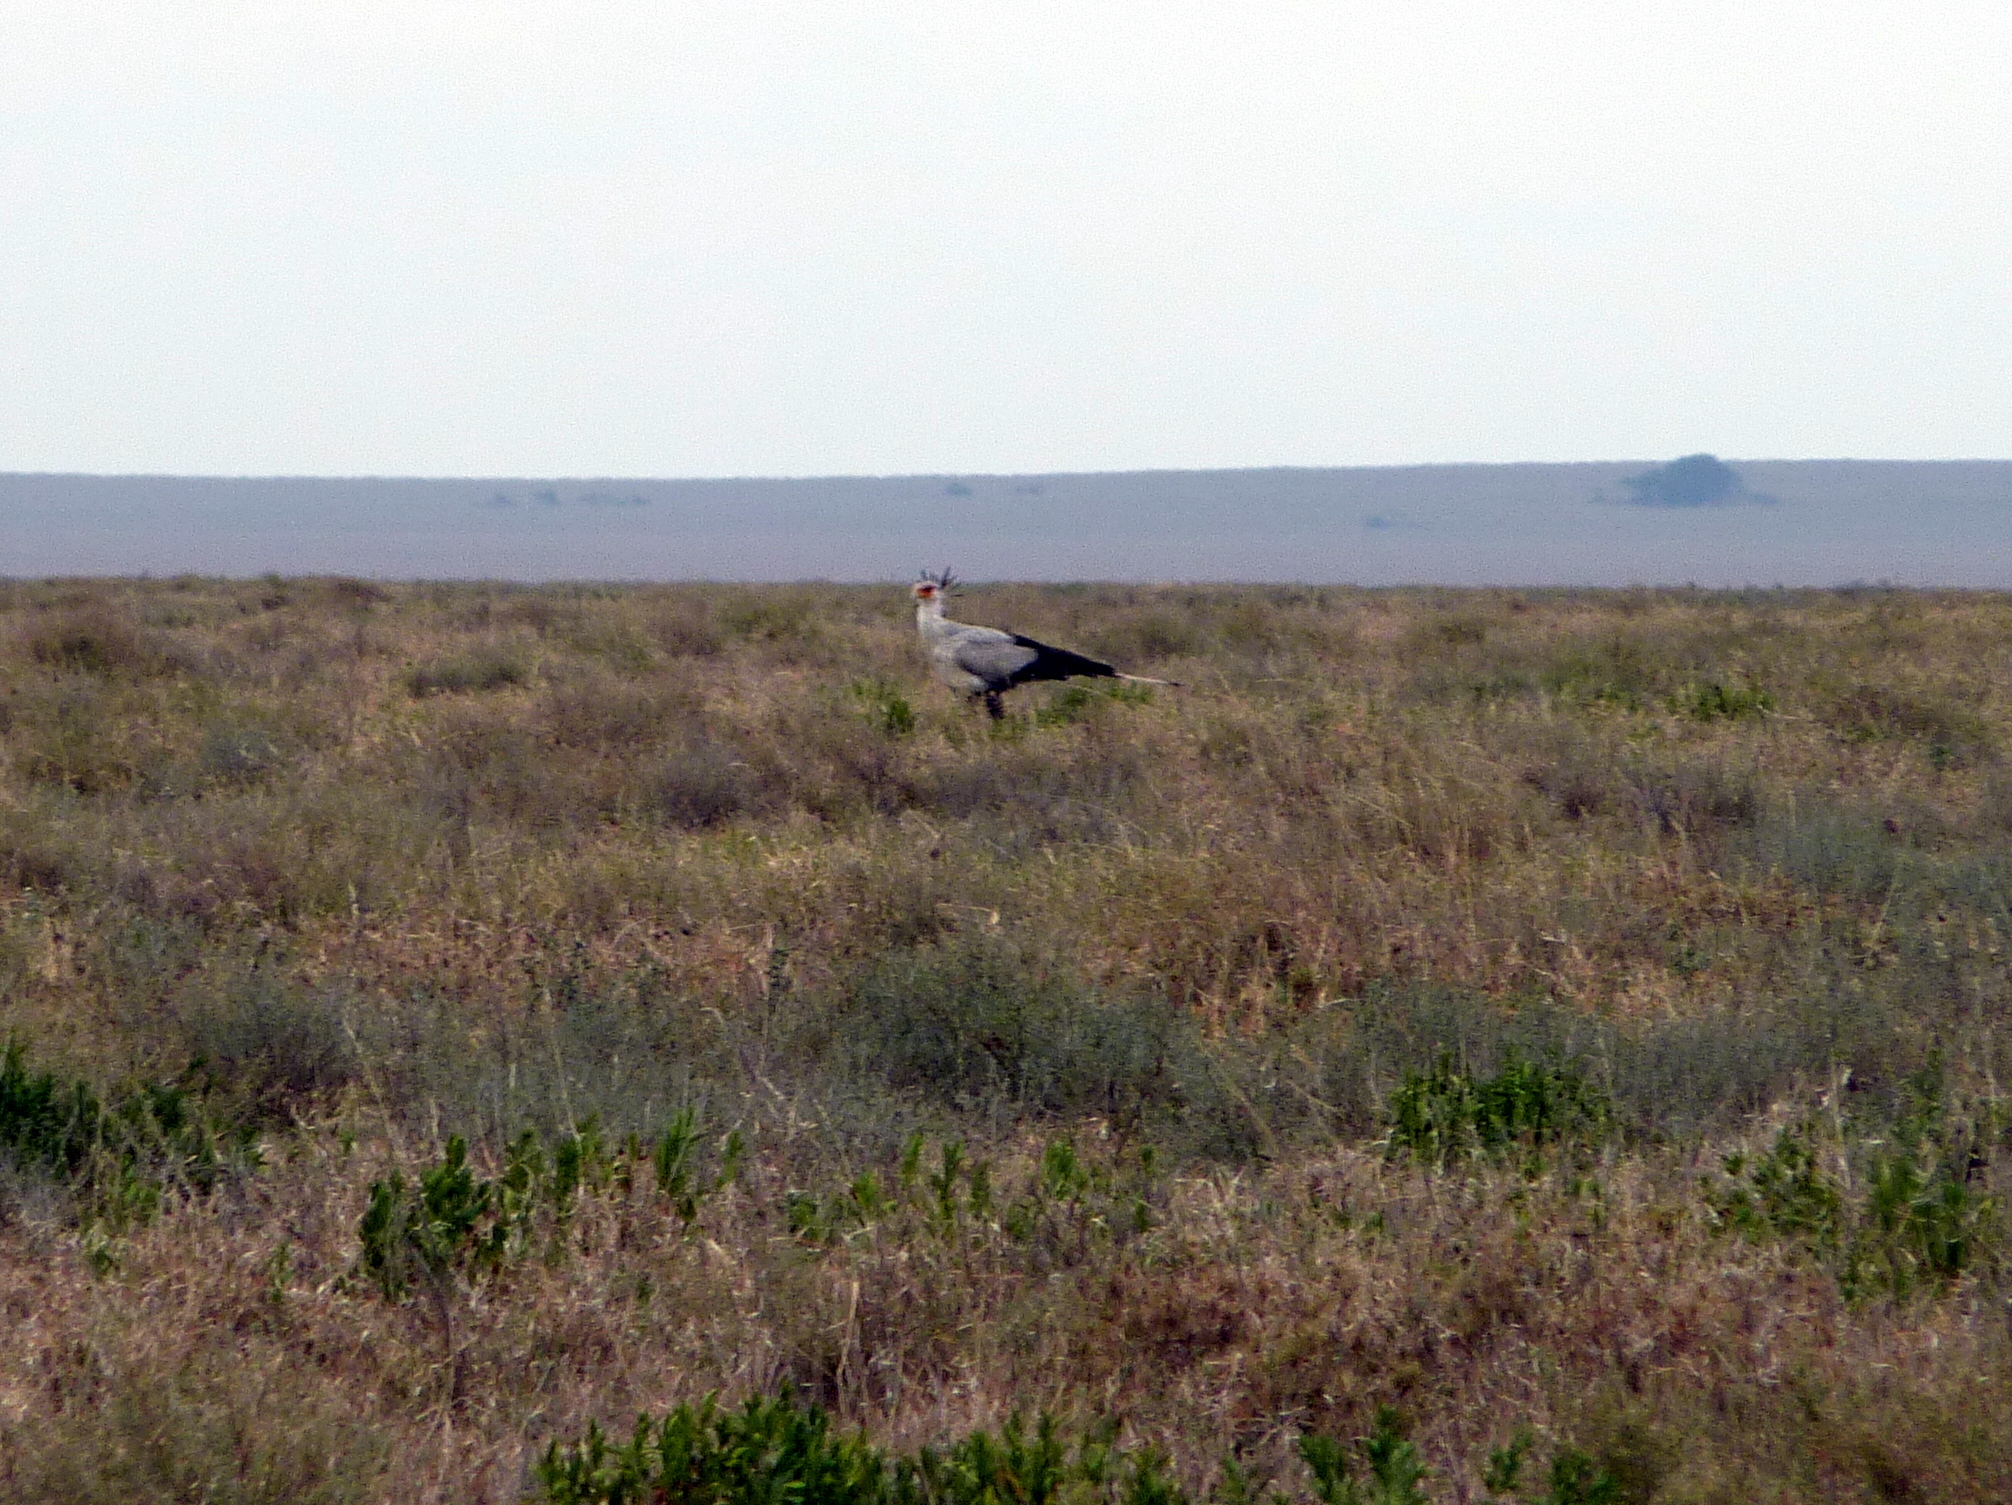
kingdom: Animalia
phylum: Chordata
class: Aves
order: Accipitriformes
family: Sagittariidae
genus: Sagittarius
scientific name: Sagittarius serpentarius
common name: Secretarybird
